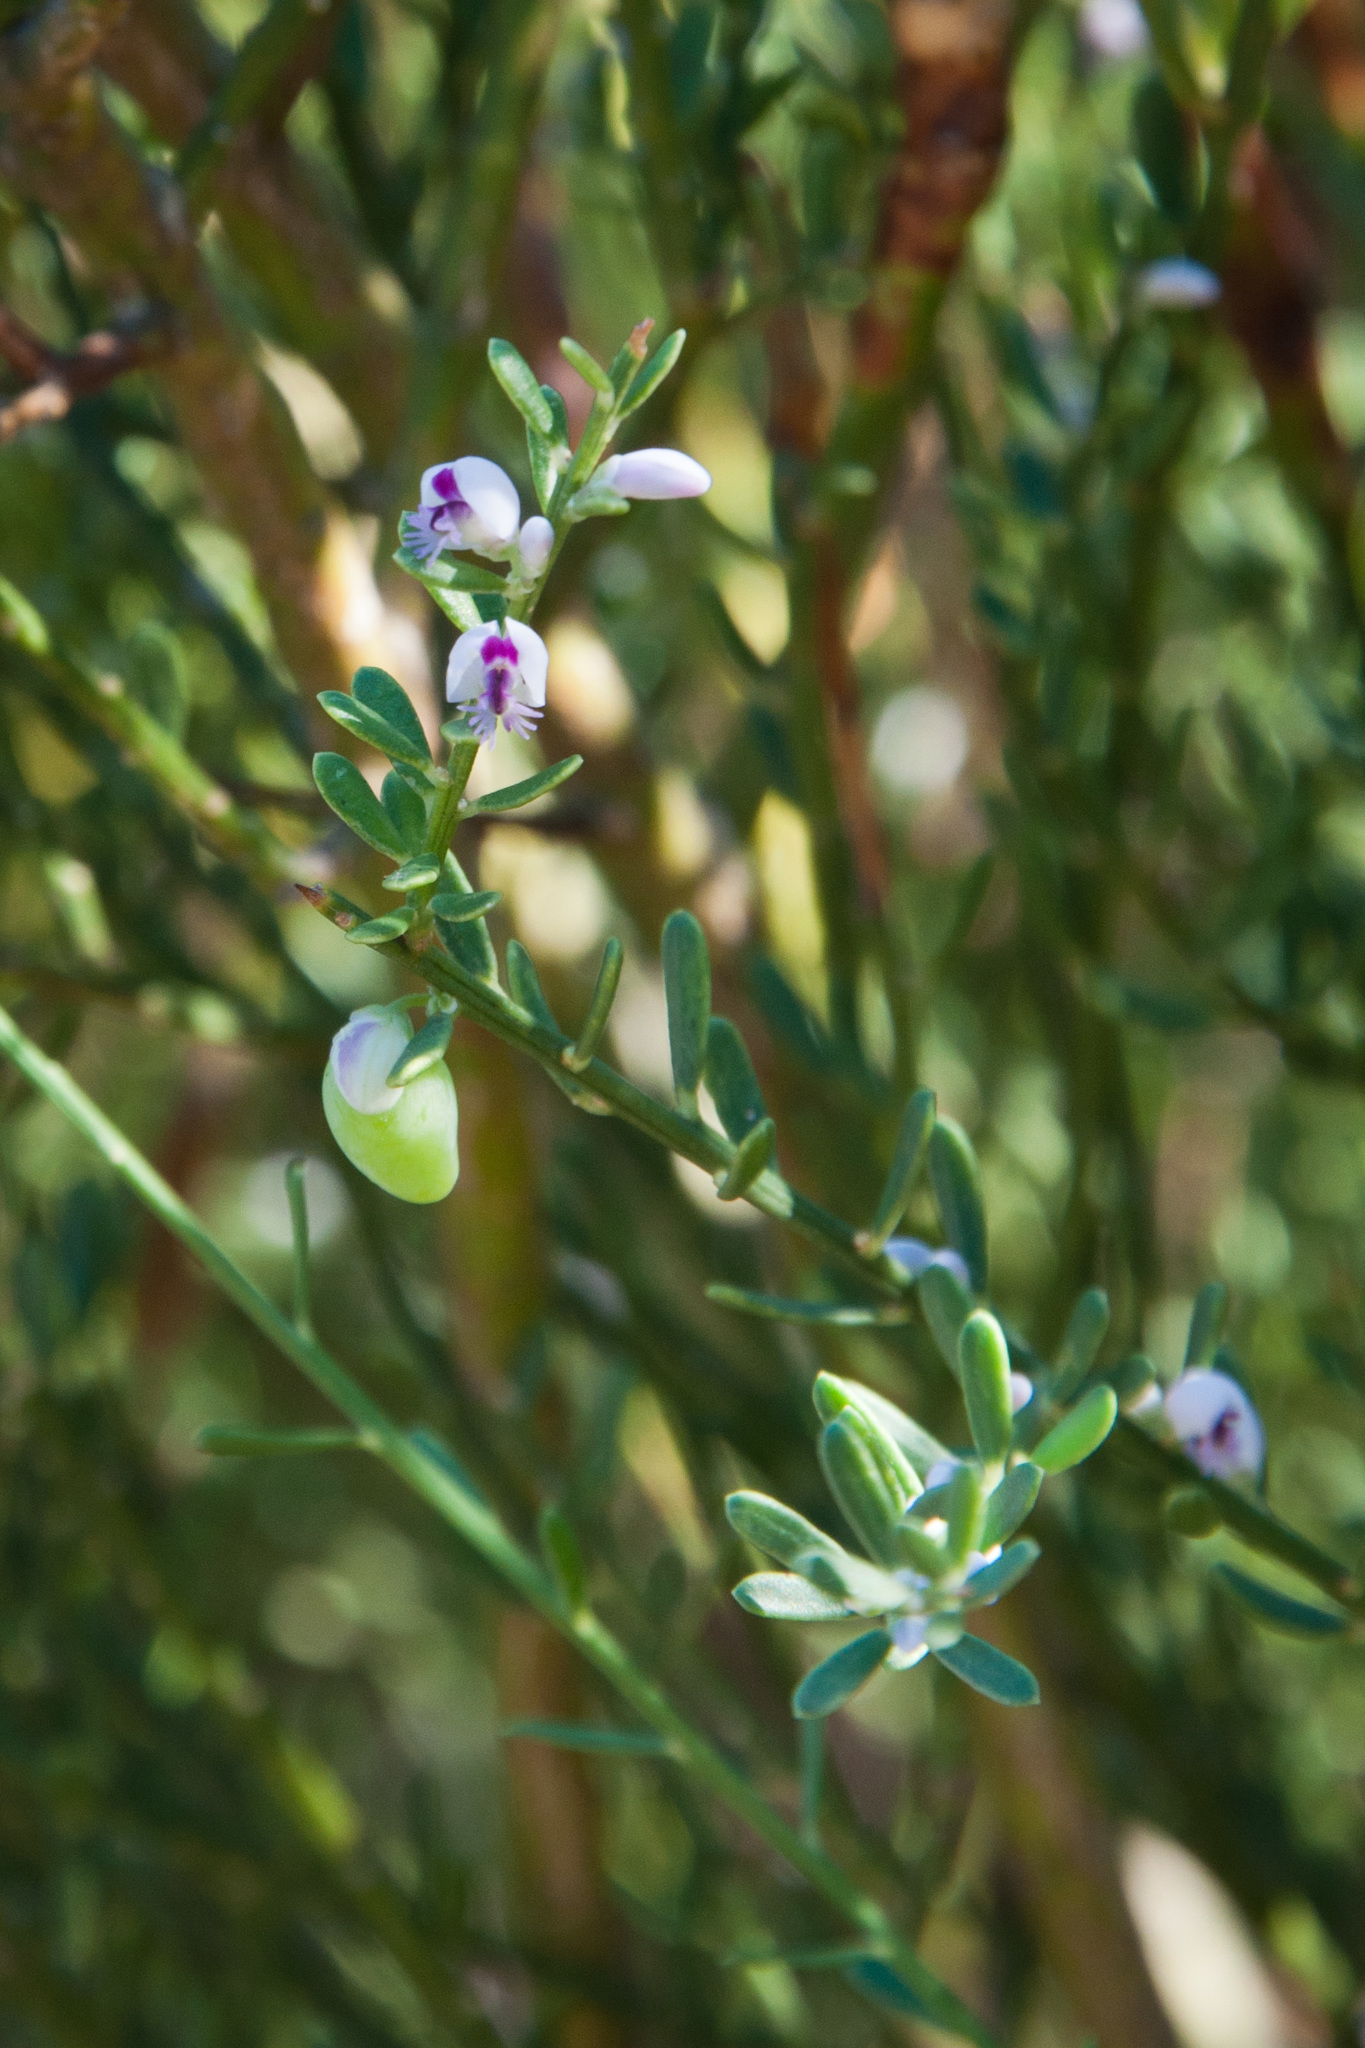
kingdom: Plantae
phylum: Tracheophyta
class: Magnoliopsida
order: Fabales
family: Polygalaceae
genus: Muraltia
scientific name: Muraltia spinosa
